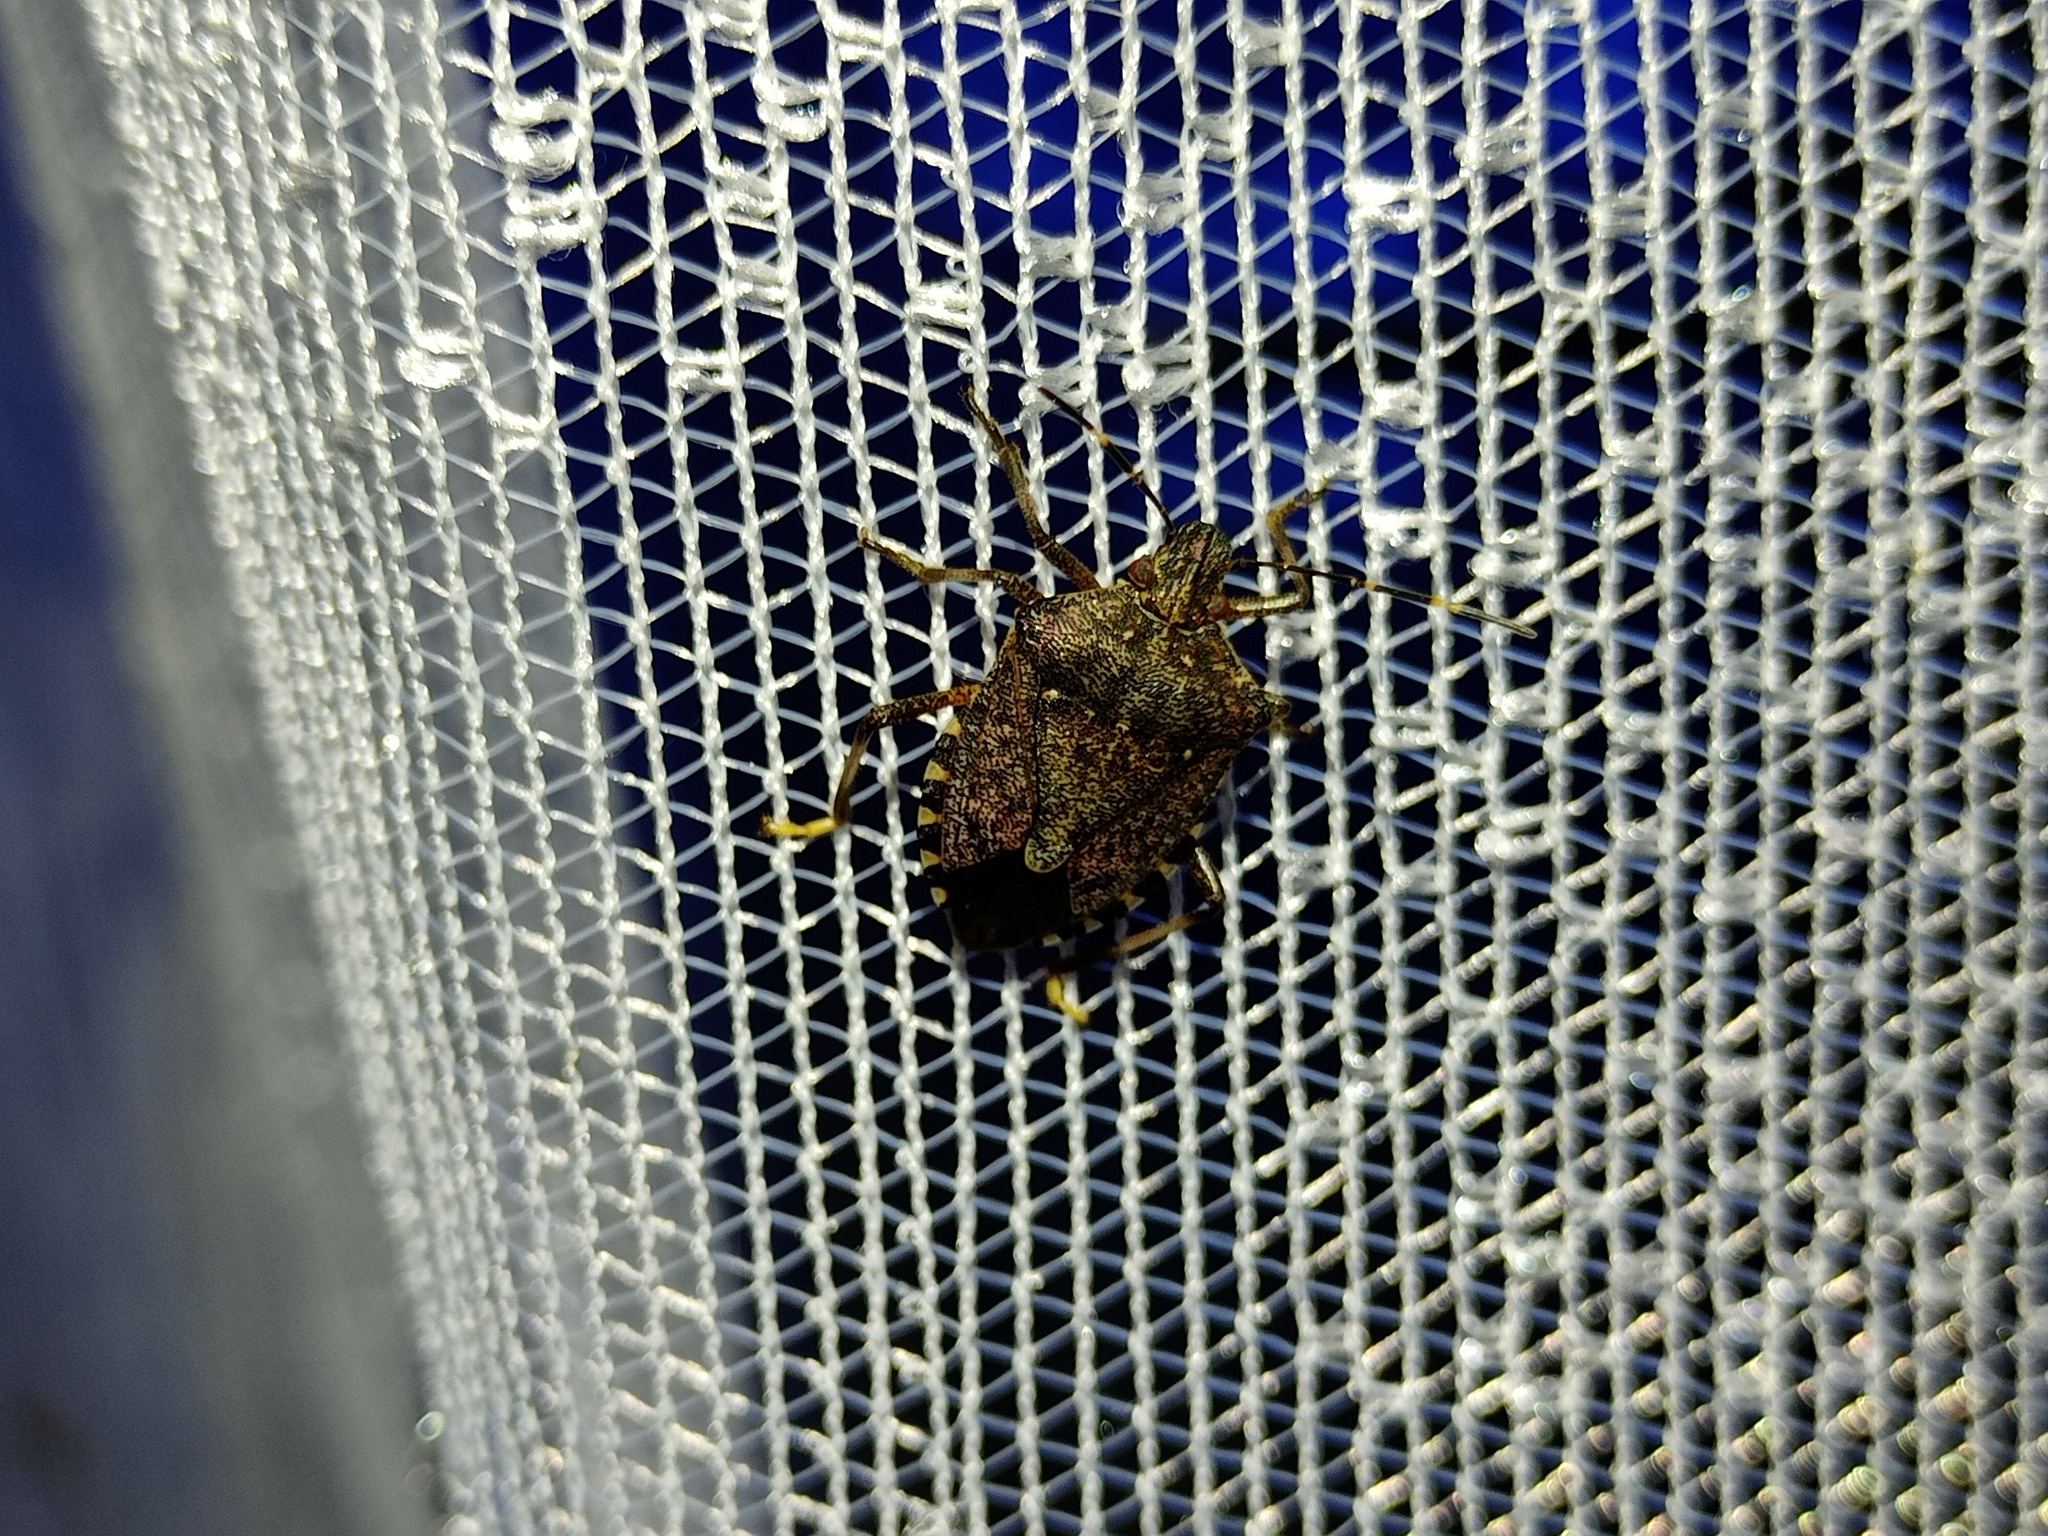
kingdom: Animalia
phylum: Arthropoda
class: Insecta
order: Hemiptera
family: Pentatomidae
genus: Halyomorpha
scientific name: Halyomorpha halys
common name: Brown marmorated stink bug
